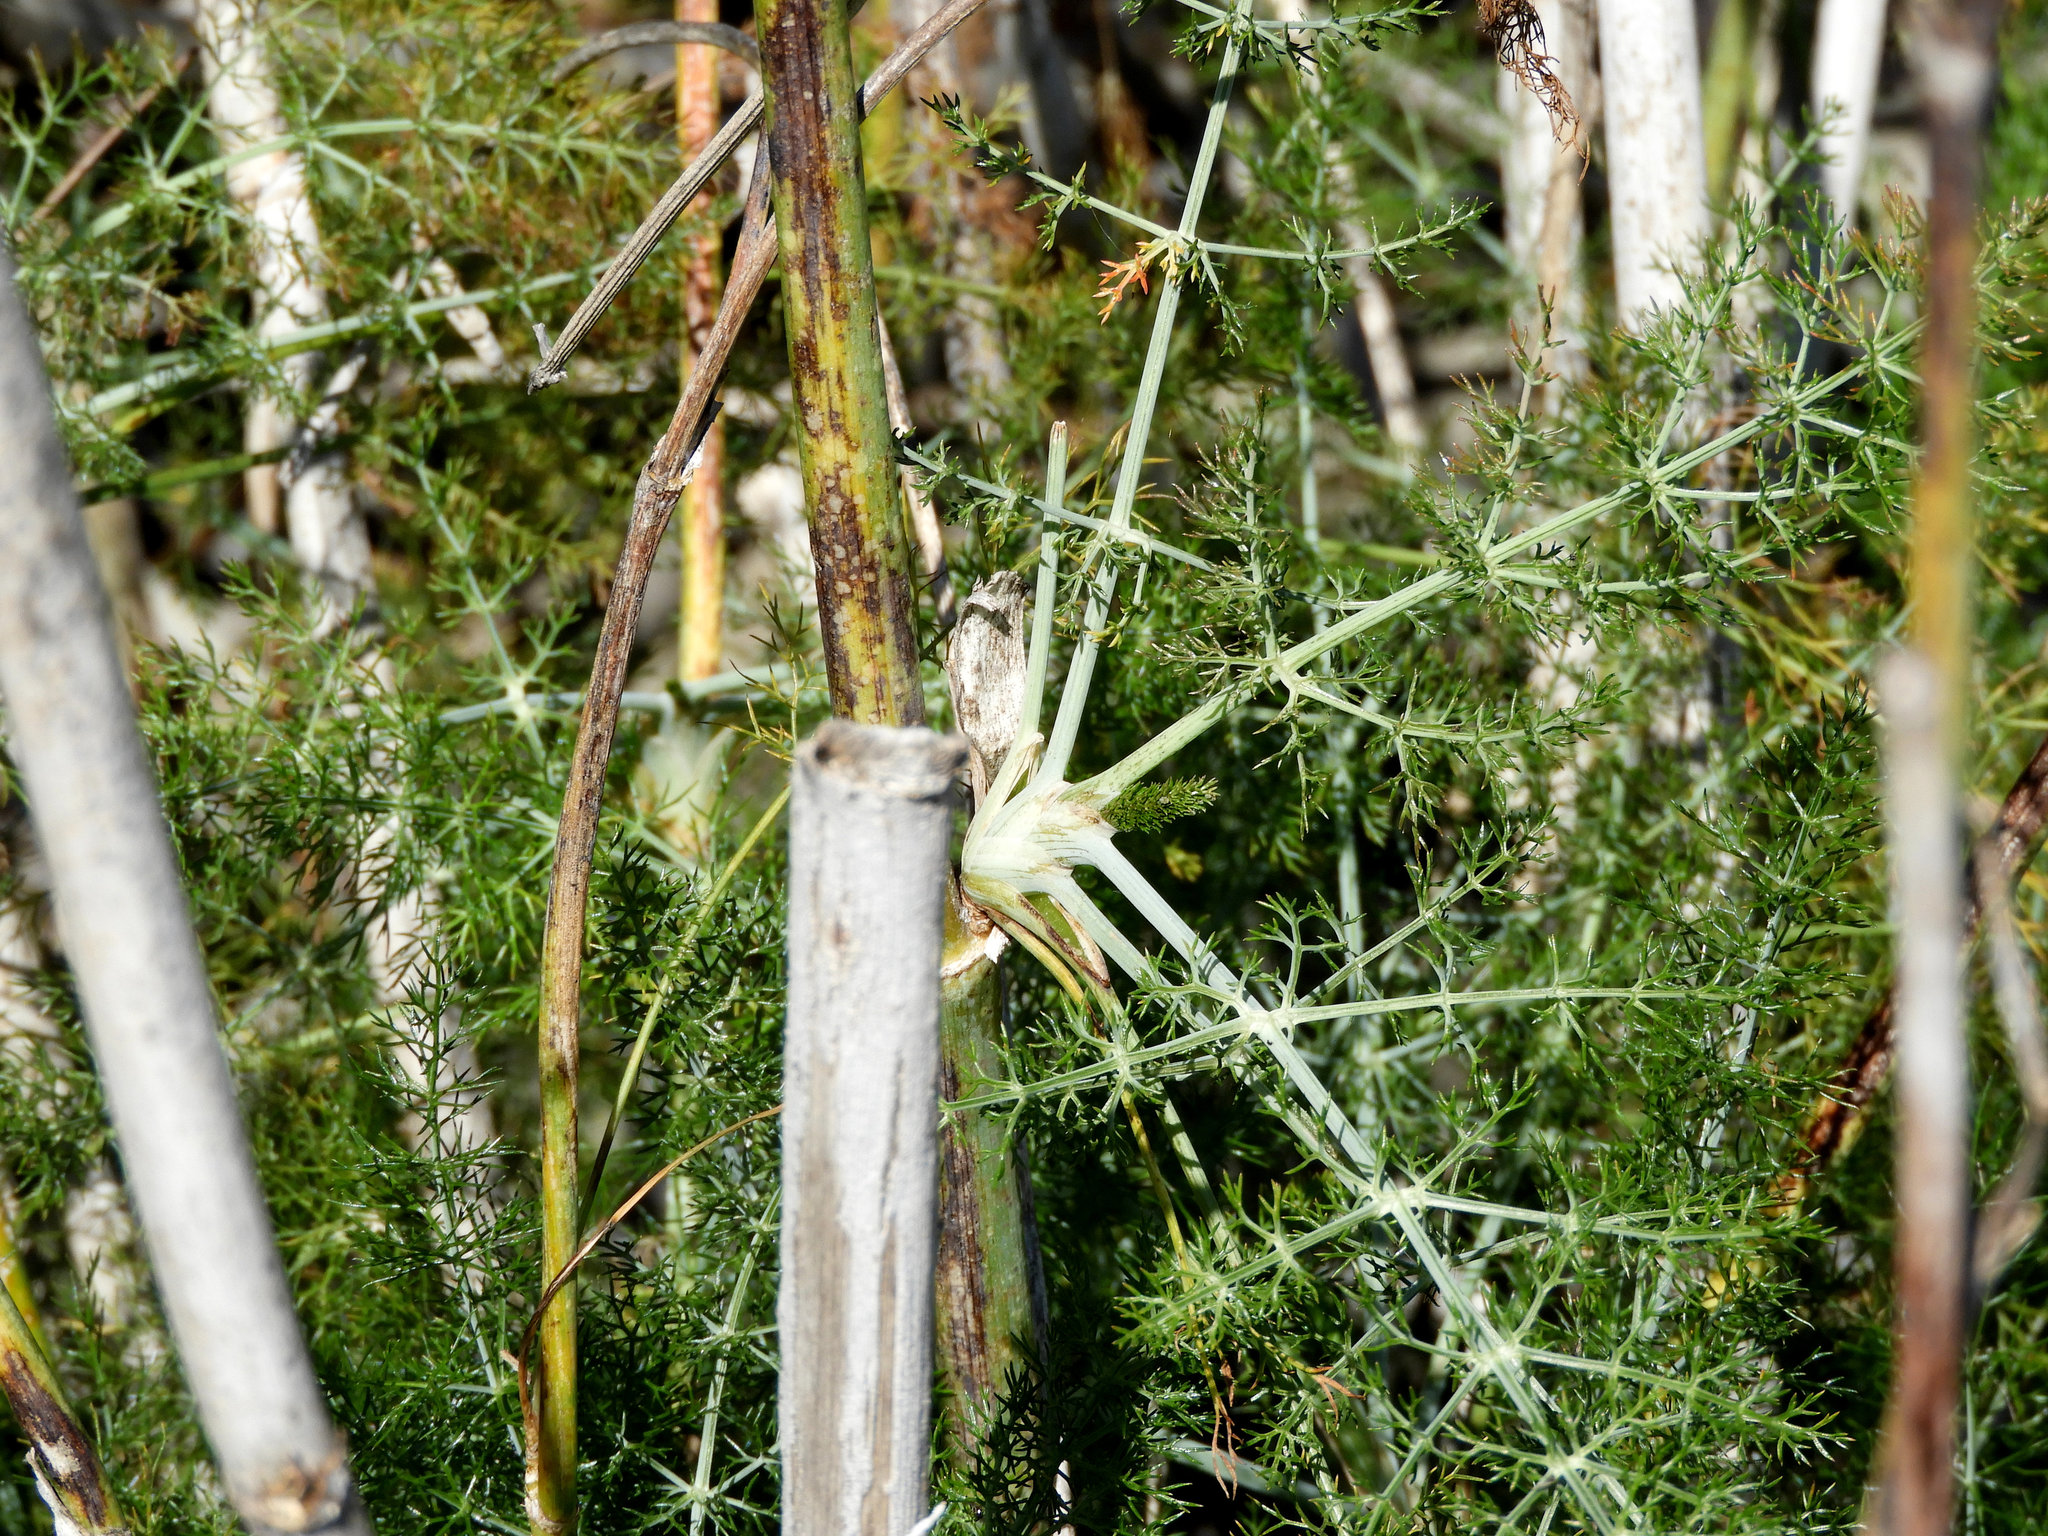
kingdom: Plantae
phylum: Tracheophyta
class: Magnoliopsida
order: Apiales
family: Apiaceae
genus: Foeniculum
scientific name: Foeniculum vulgare
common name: Fennel
